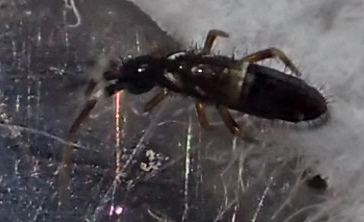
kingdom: Animalia
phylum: Arthropoda
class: Collembola
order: Entomobryomorpha
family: Orchesellidae
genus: Orchesella
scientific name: Orchesella cincta
